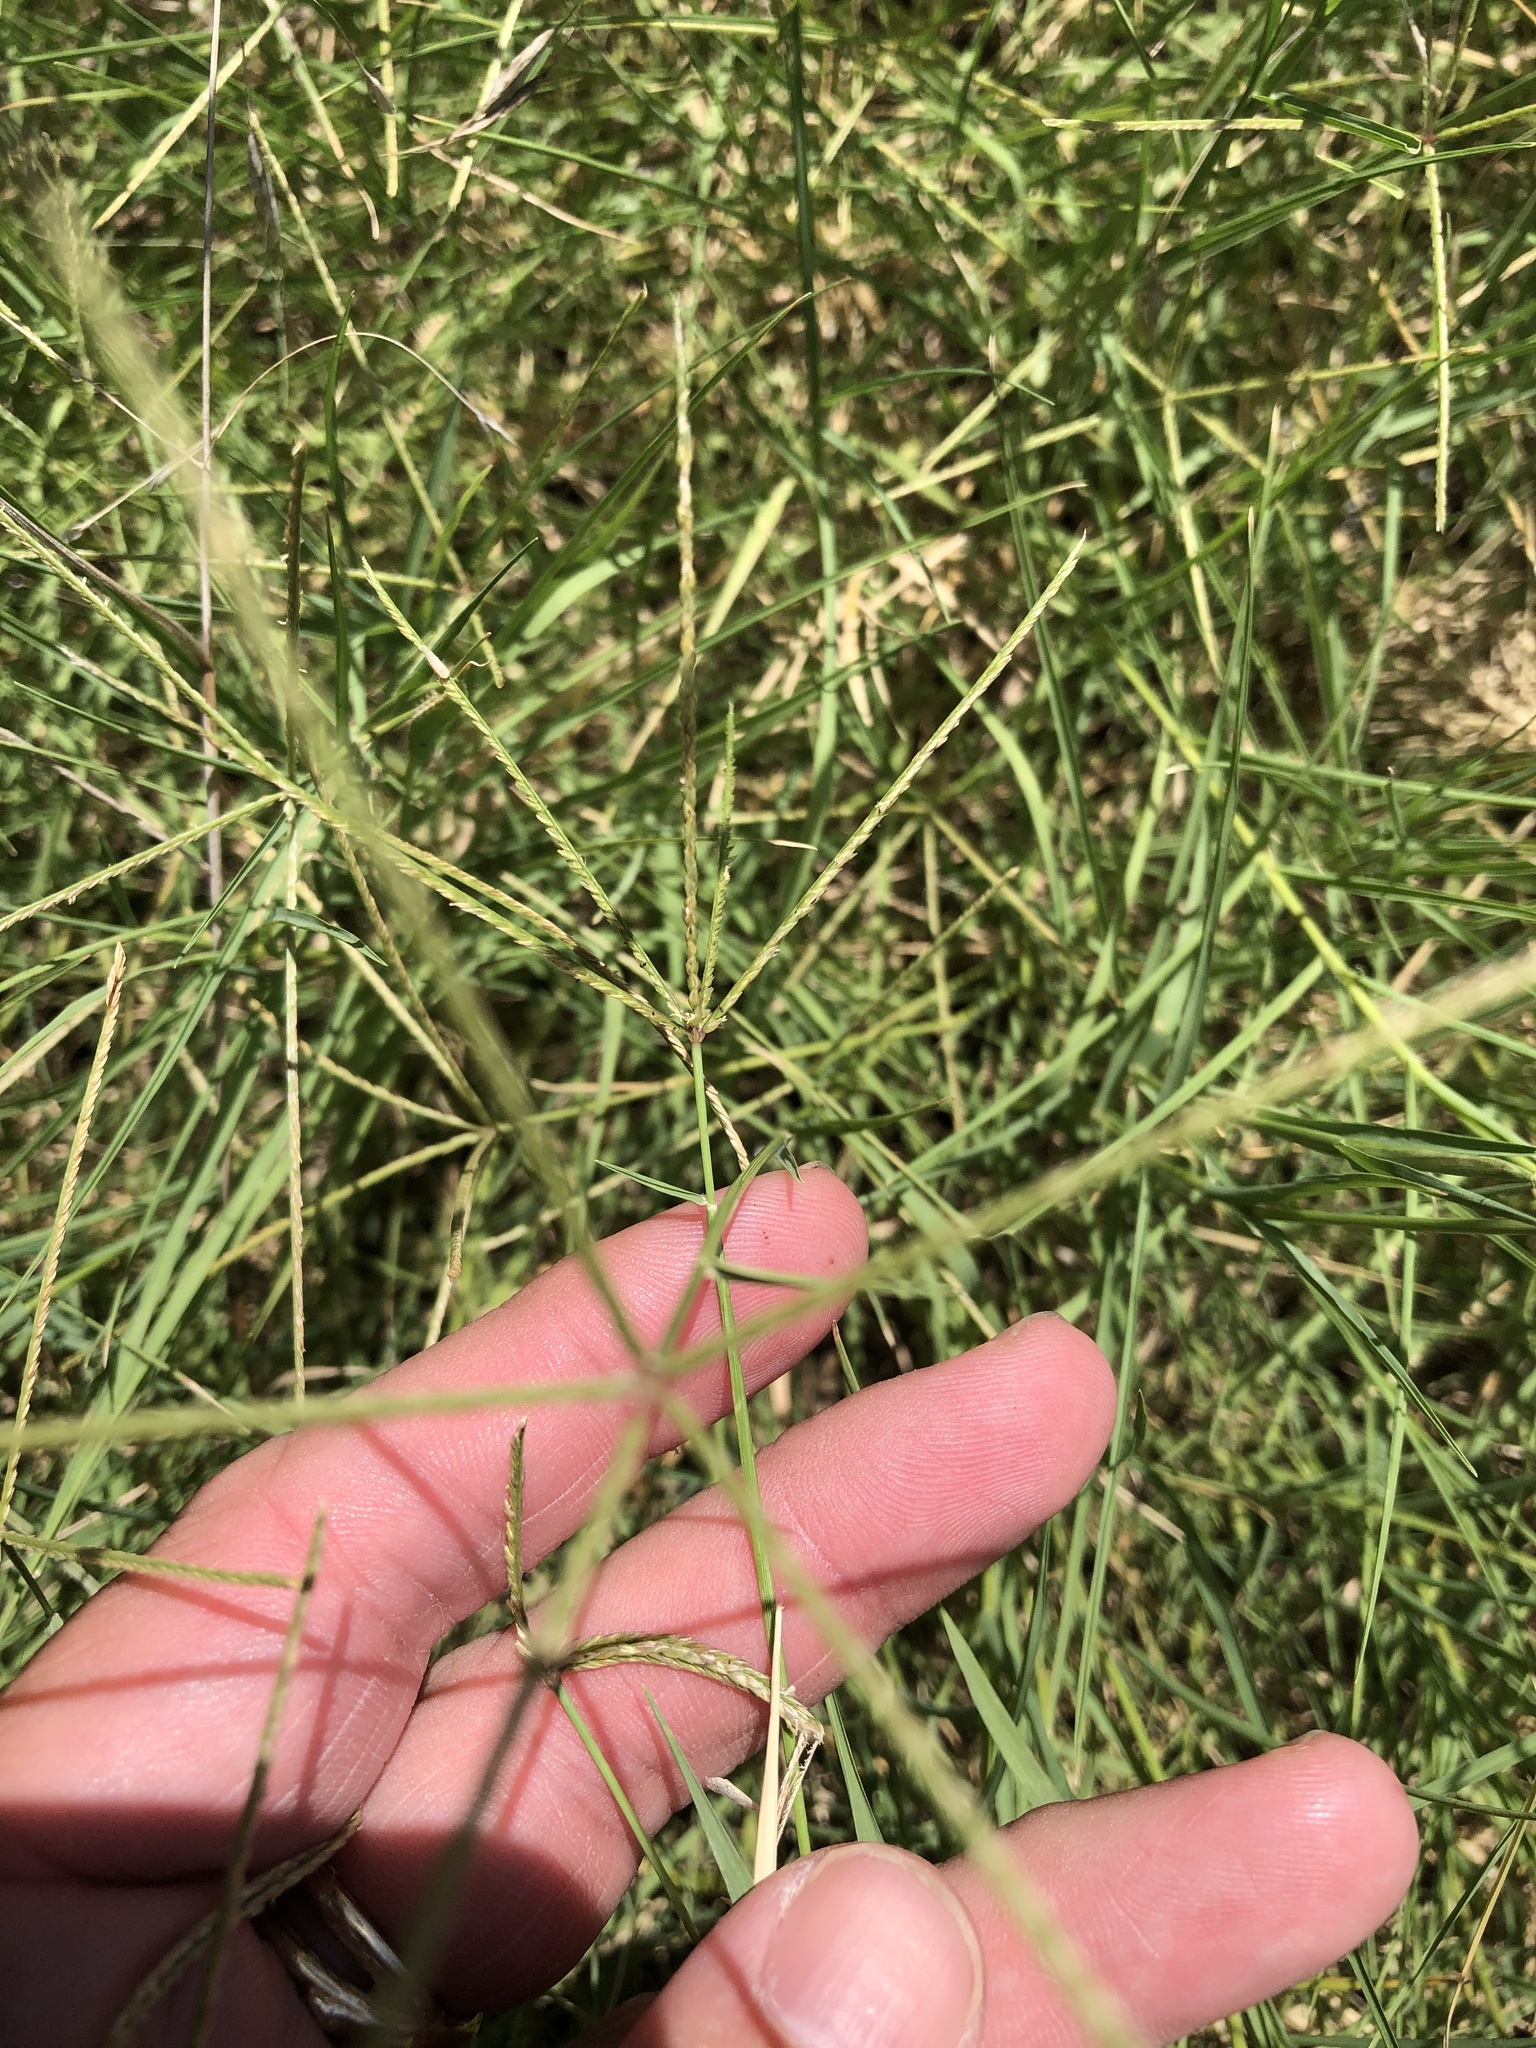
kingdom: Plantae
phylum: Tracheophyta
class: Liliopsida
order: Poales
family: Poaceae
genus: Cynodon
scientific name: Cynodon dactylon
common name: Bermuda grass
